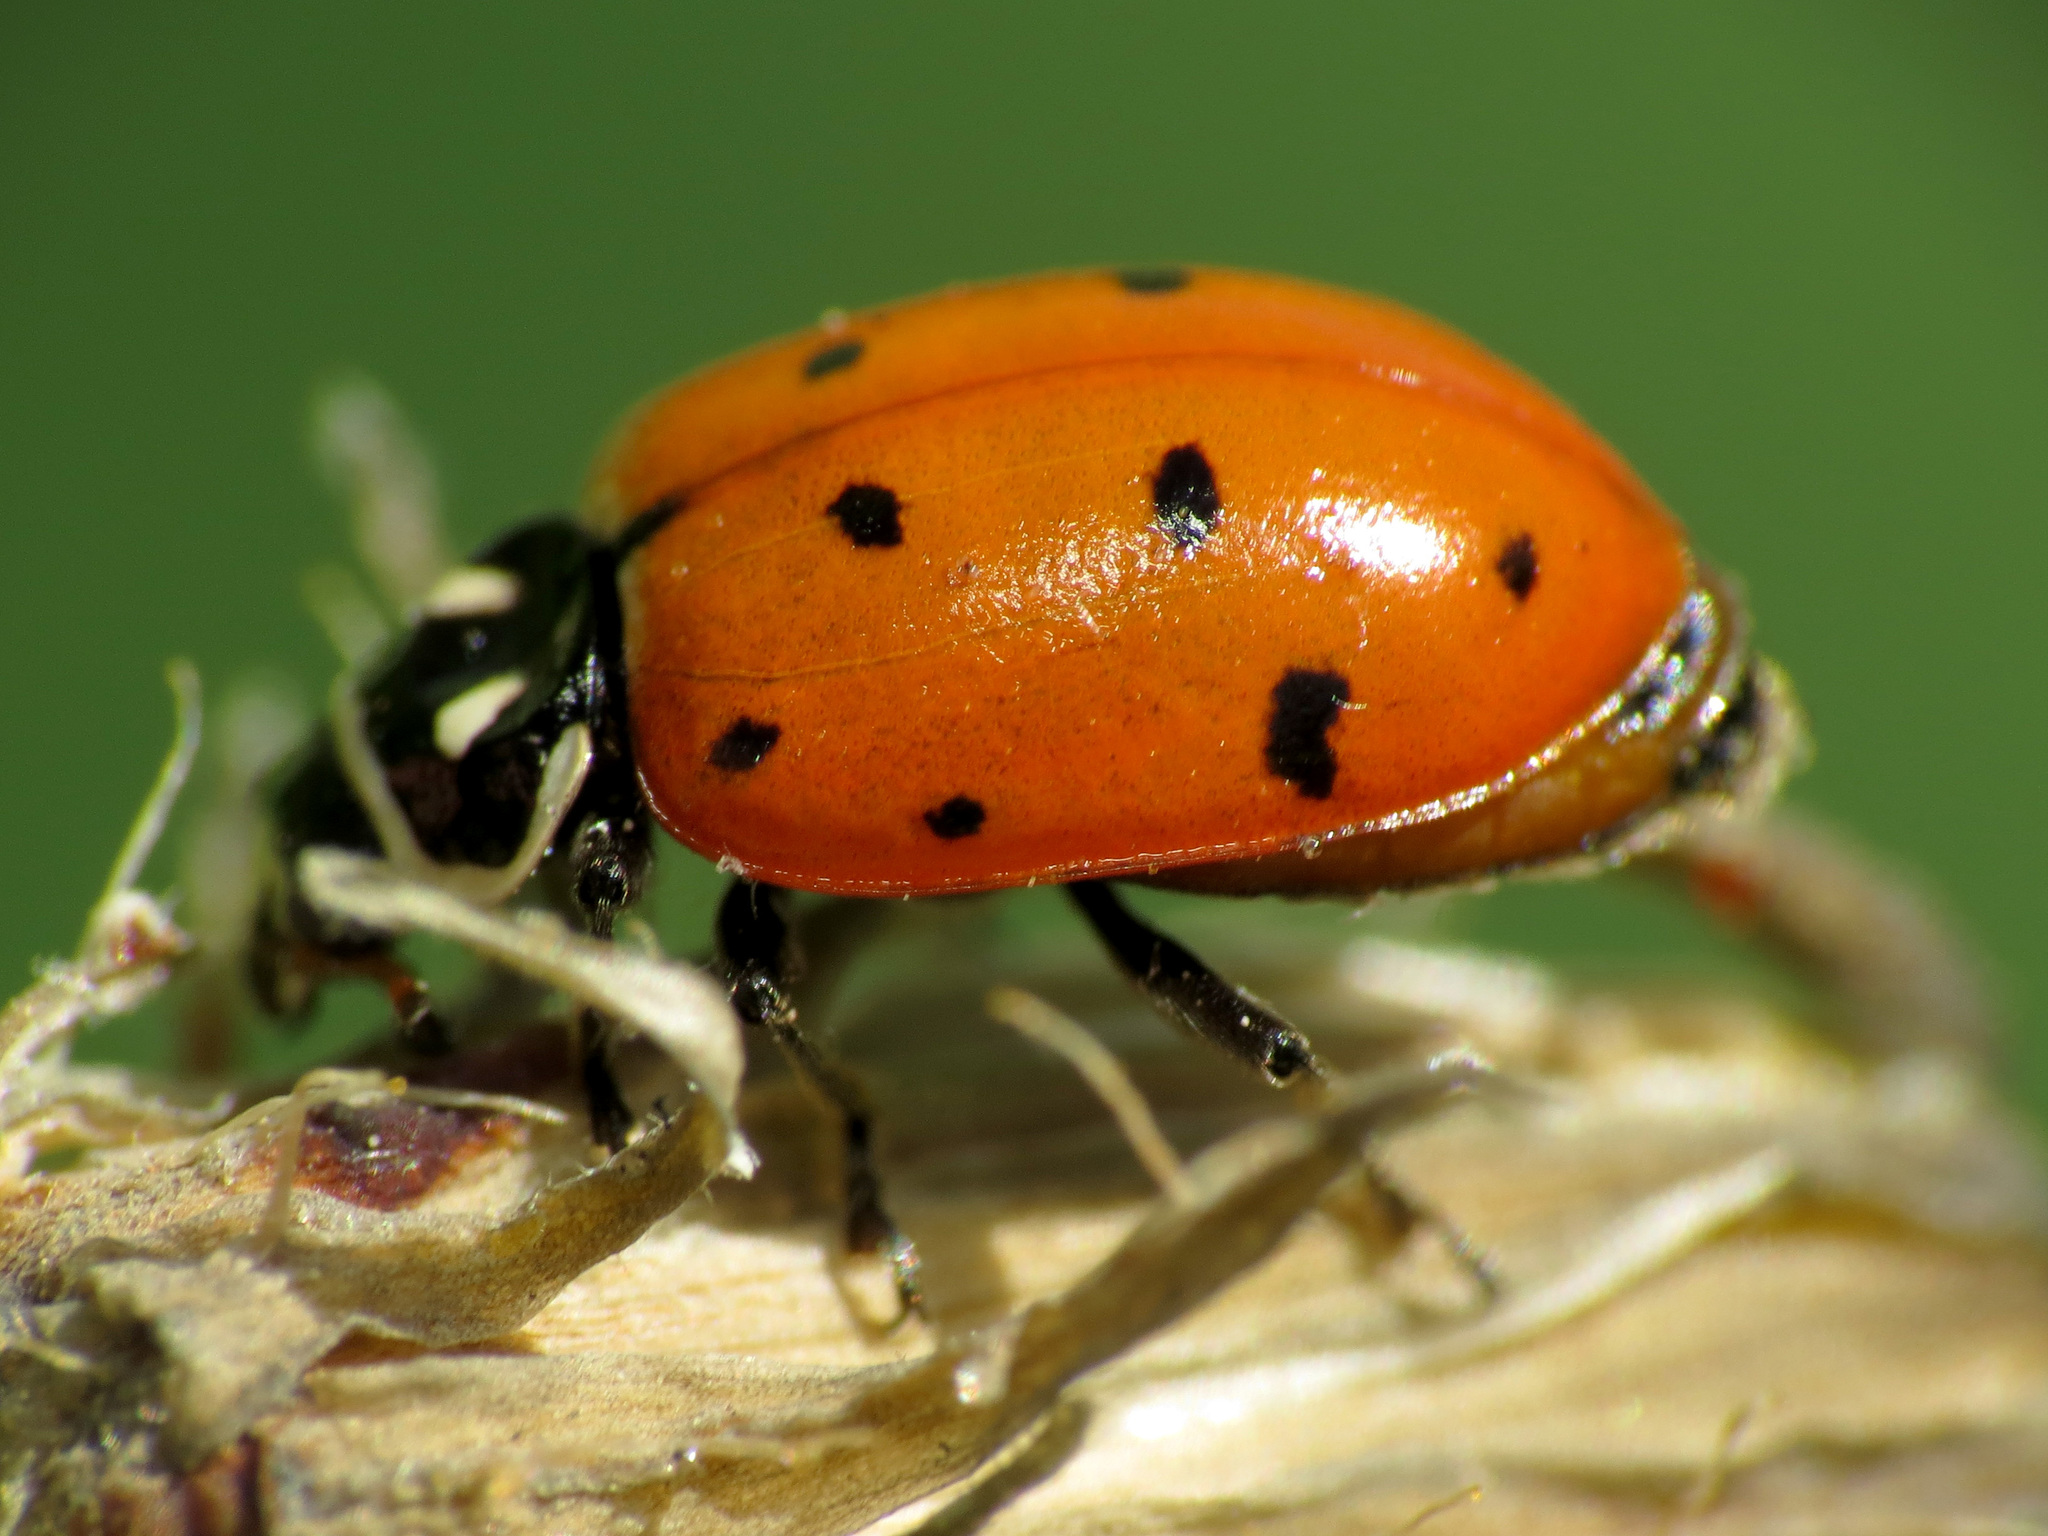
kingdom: Animalia
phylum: Arthropoda
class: Insecta
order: Coleoptera
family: Coccinellidae
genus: Hippodamia
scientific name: Hippodamia convergens
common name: Convergent lady beetle
